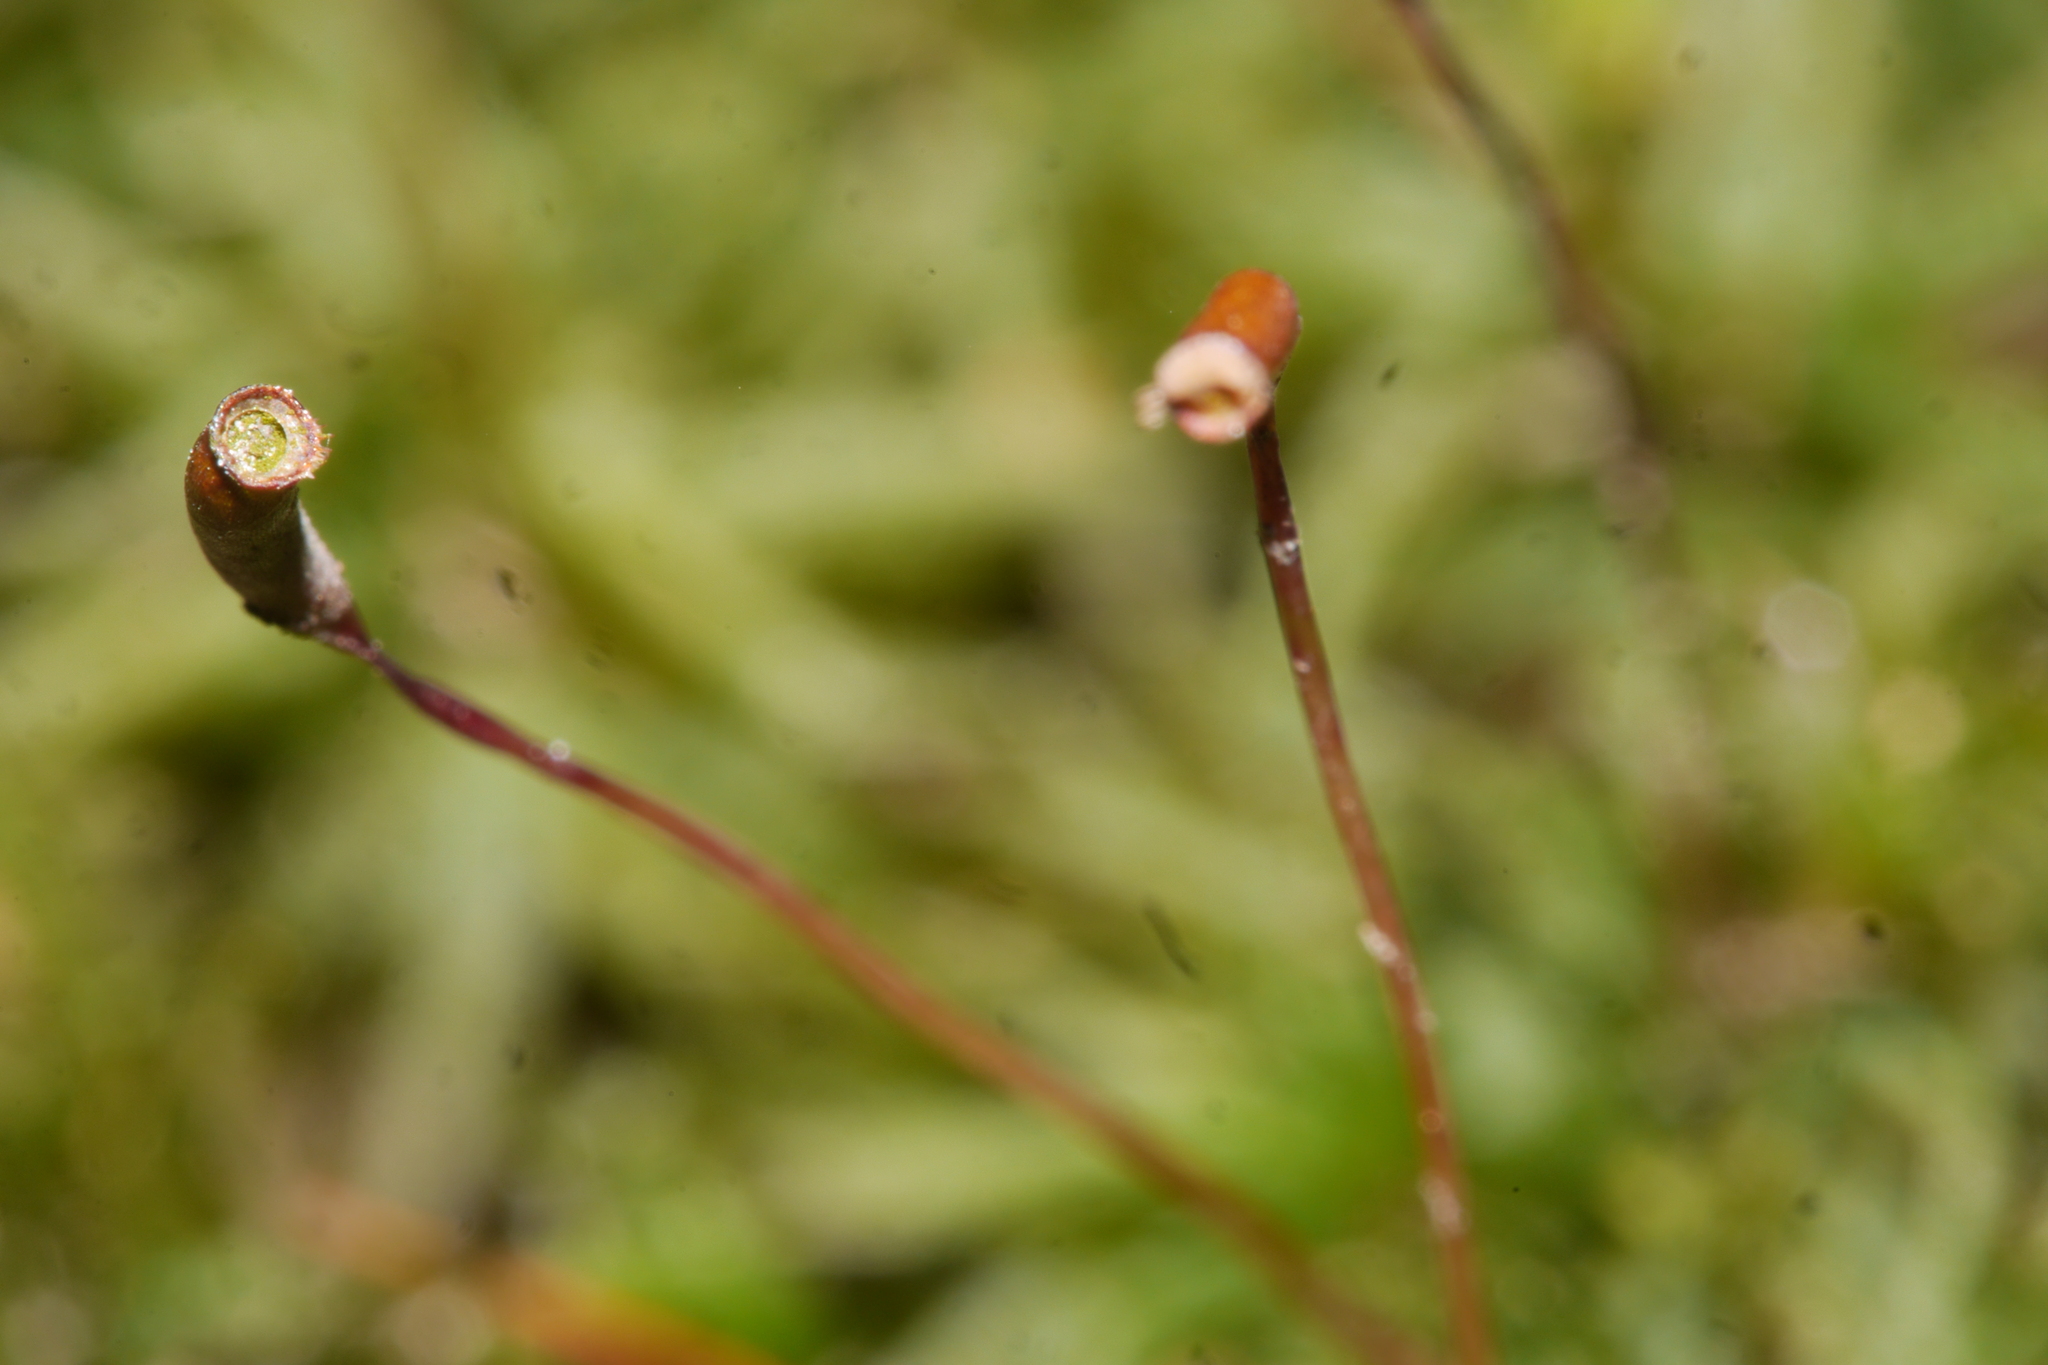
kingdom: Plantae
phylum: Bryophyta
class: Polytrichopsida
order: Polytrichales
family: Polytrichaceae
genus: Atrichum
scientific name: Atrichum undulatum
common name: Common smoothcap
